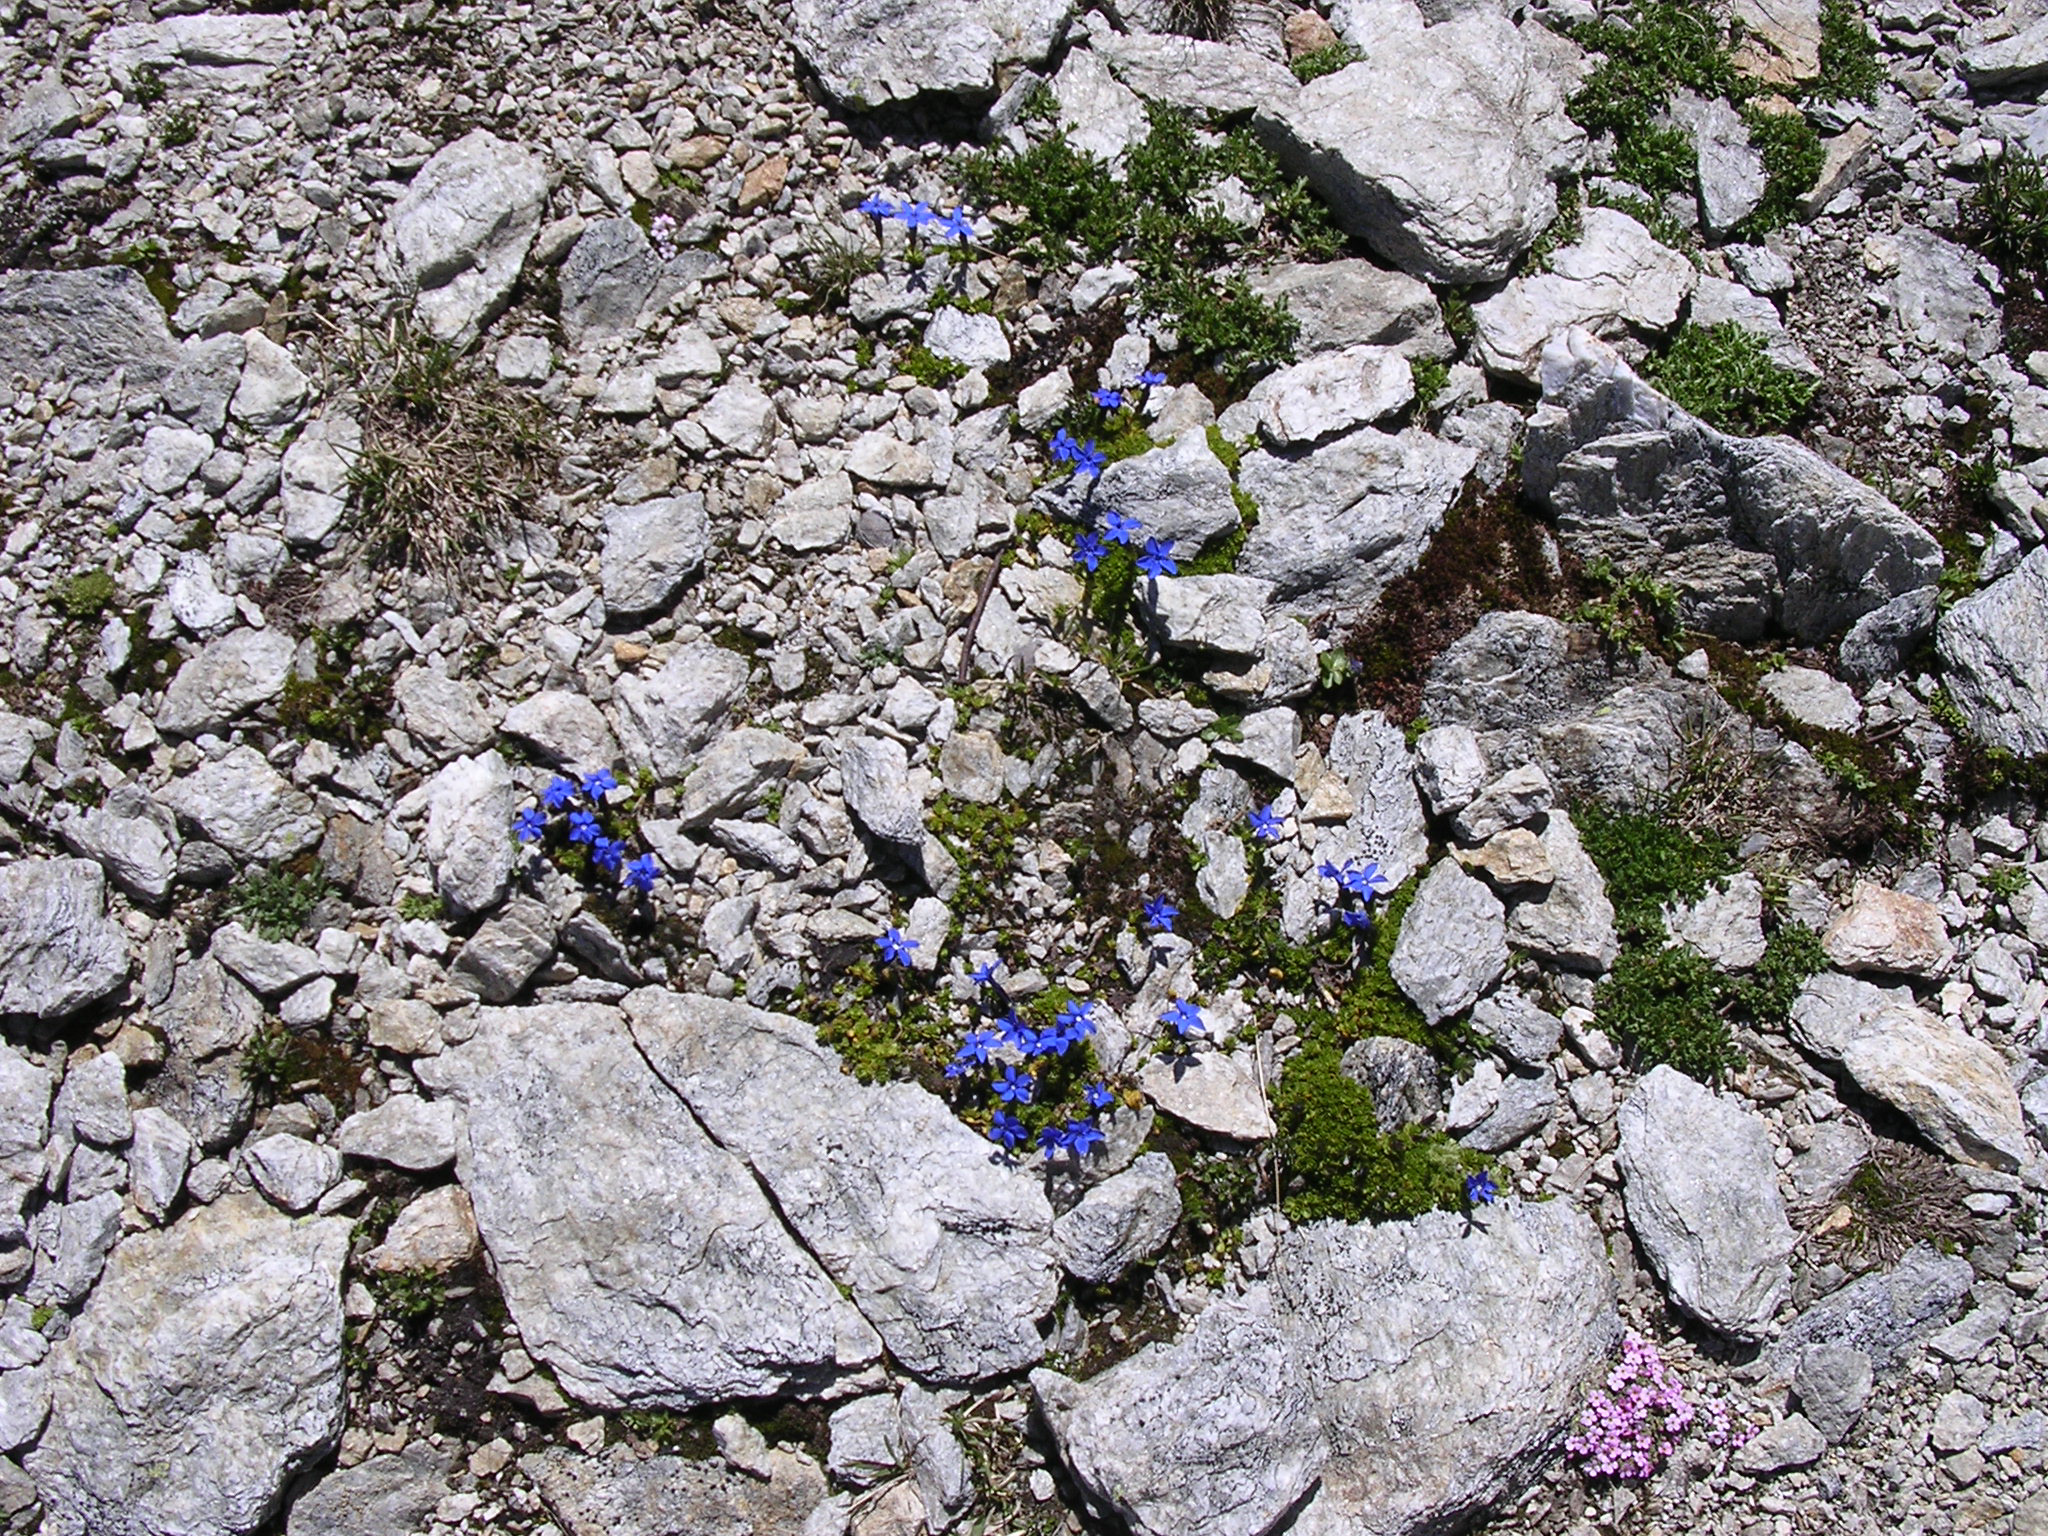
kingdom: Plantae
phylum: Tracheophyta
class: Magnoliopsida
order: Gentianales
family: Gentianaceae
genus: Gentiana
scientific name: Gentiana bavarica
